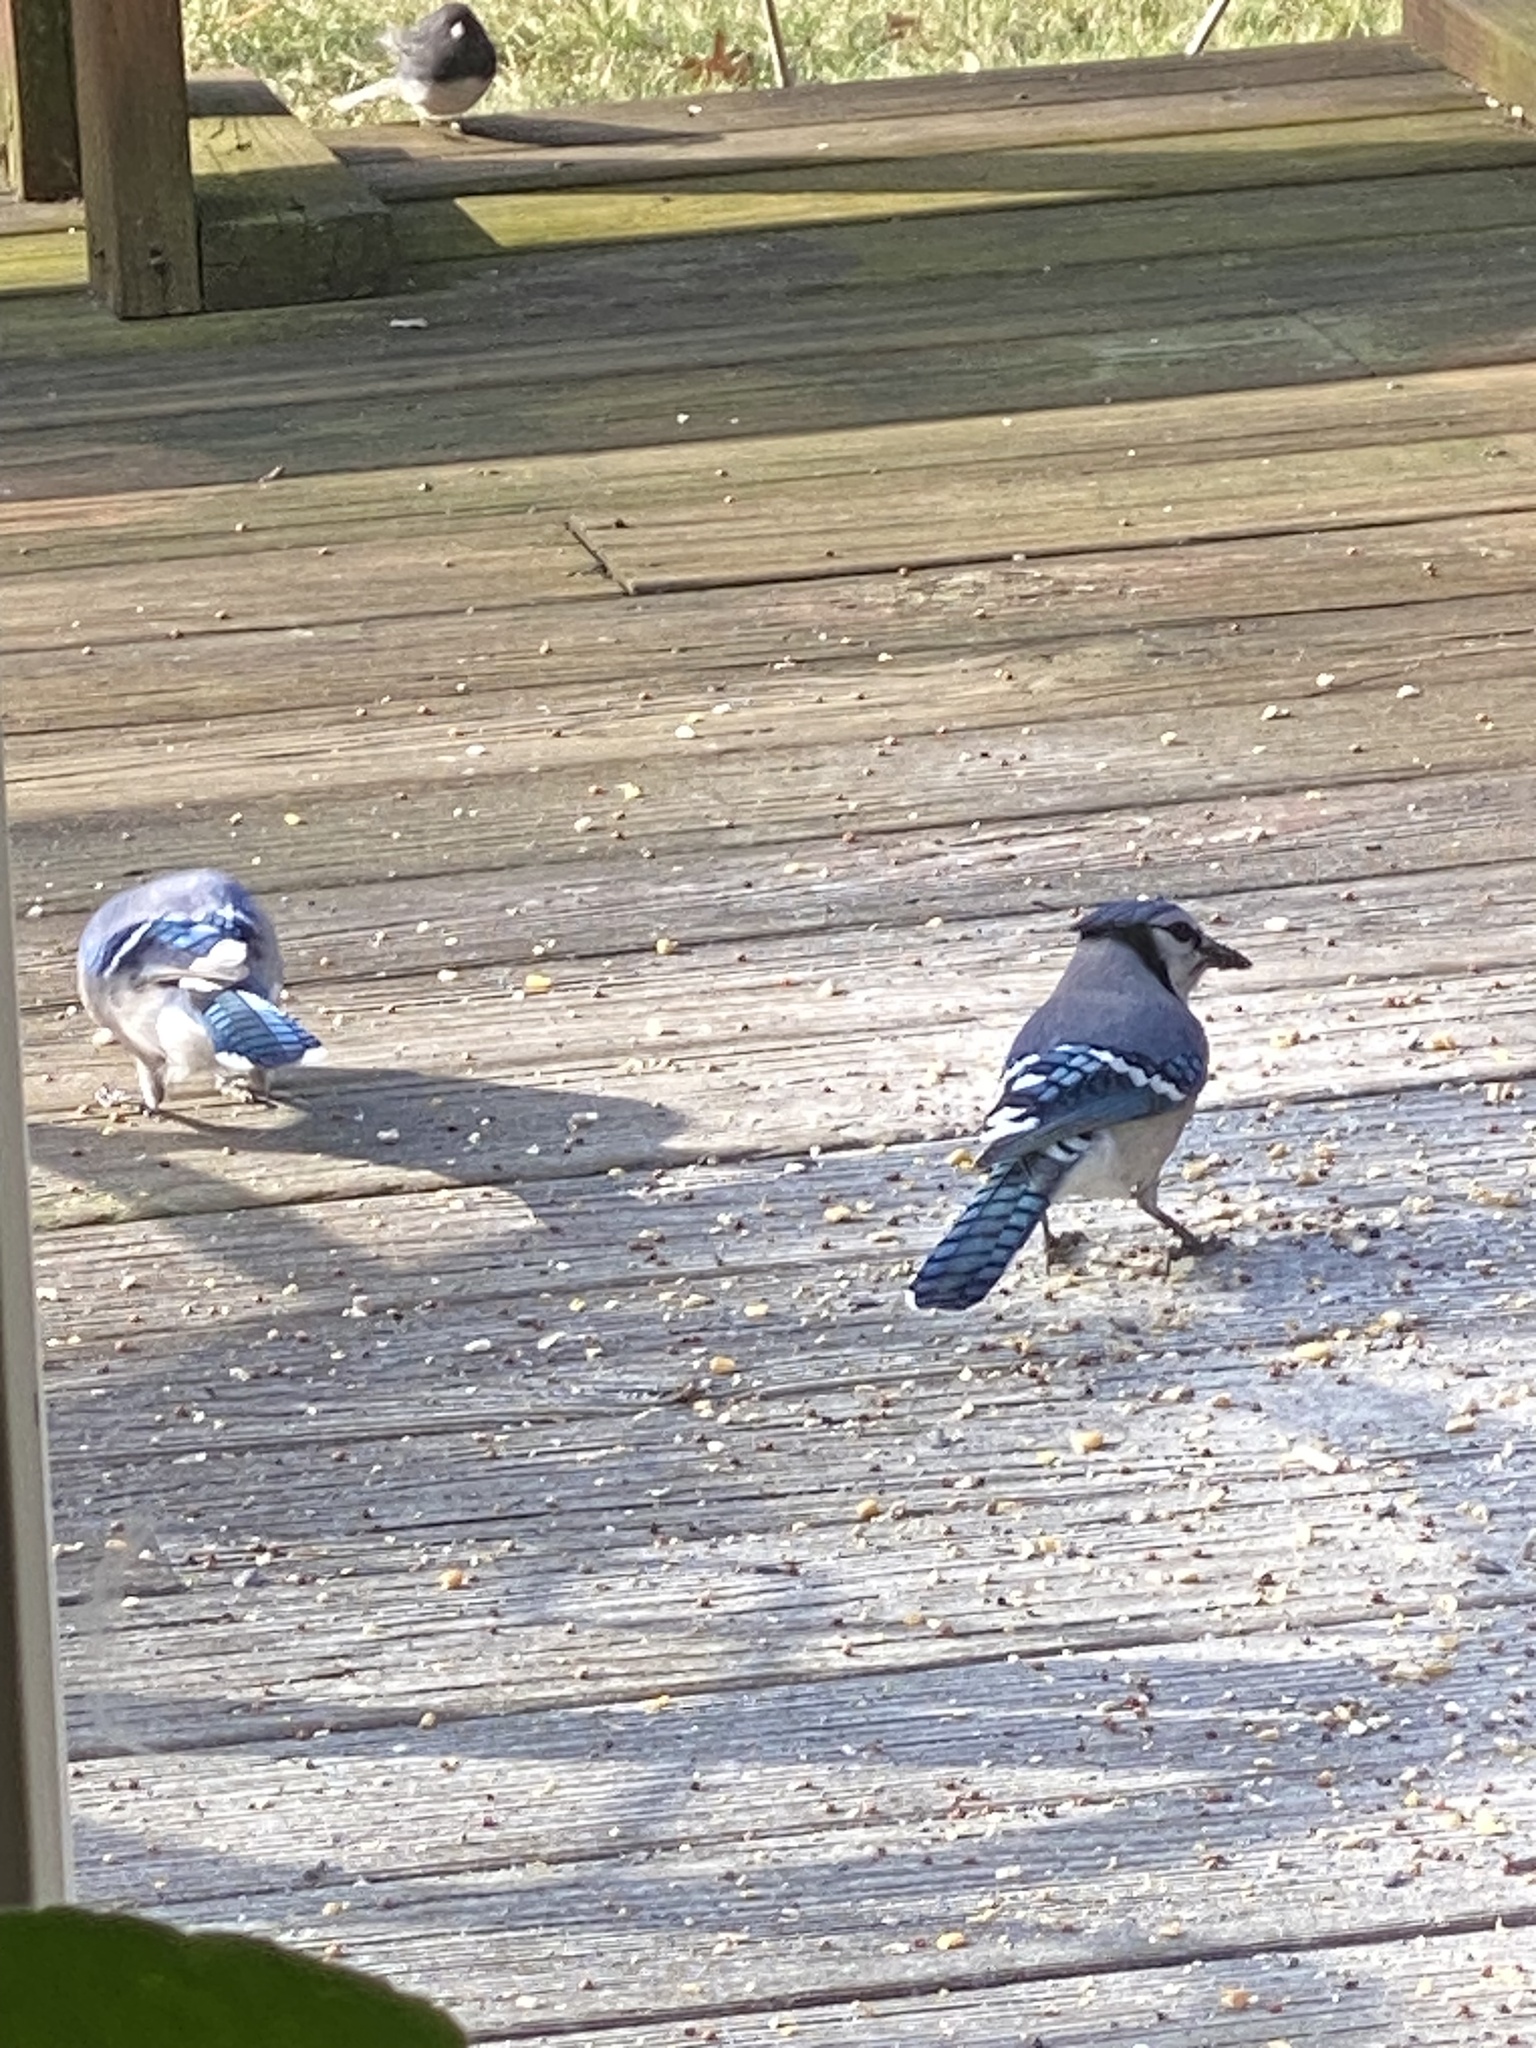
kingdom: Animalia
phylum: Chordata
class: Aves
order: Passeriformes
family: Corvidae
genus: Cyanocitta
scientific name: Cyanocitta cristata
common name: Blue jay
